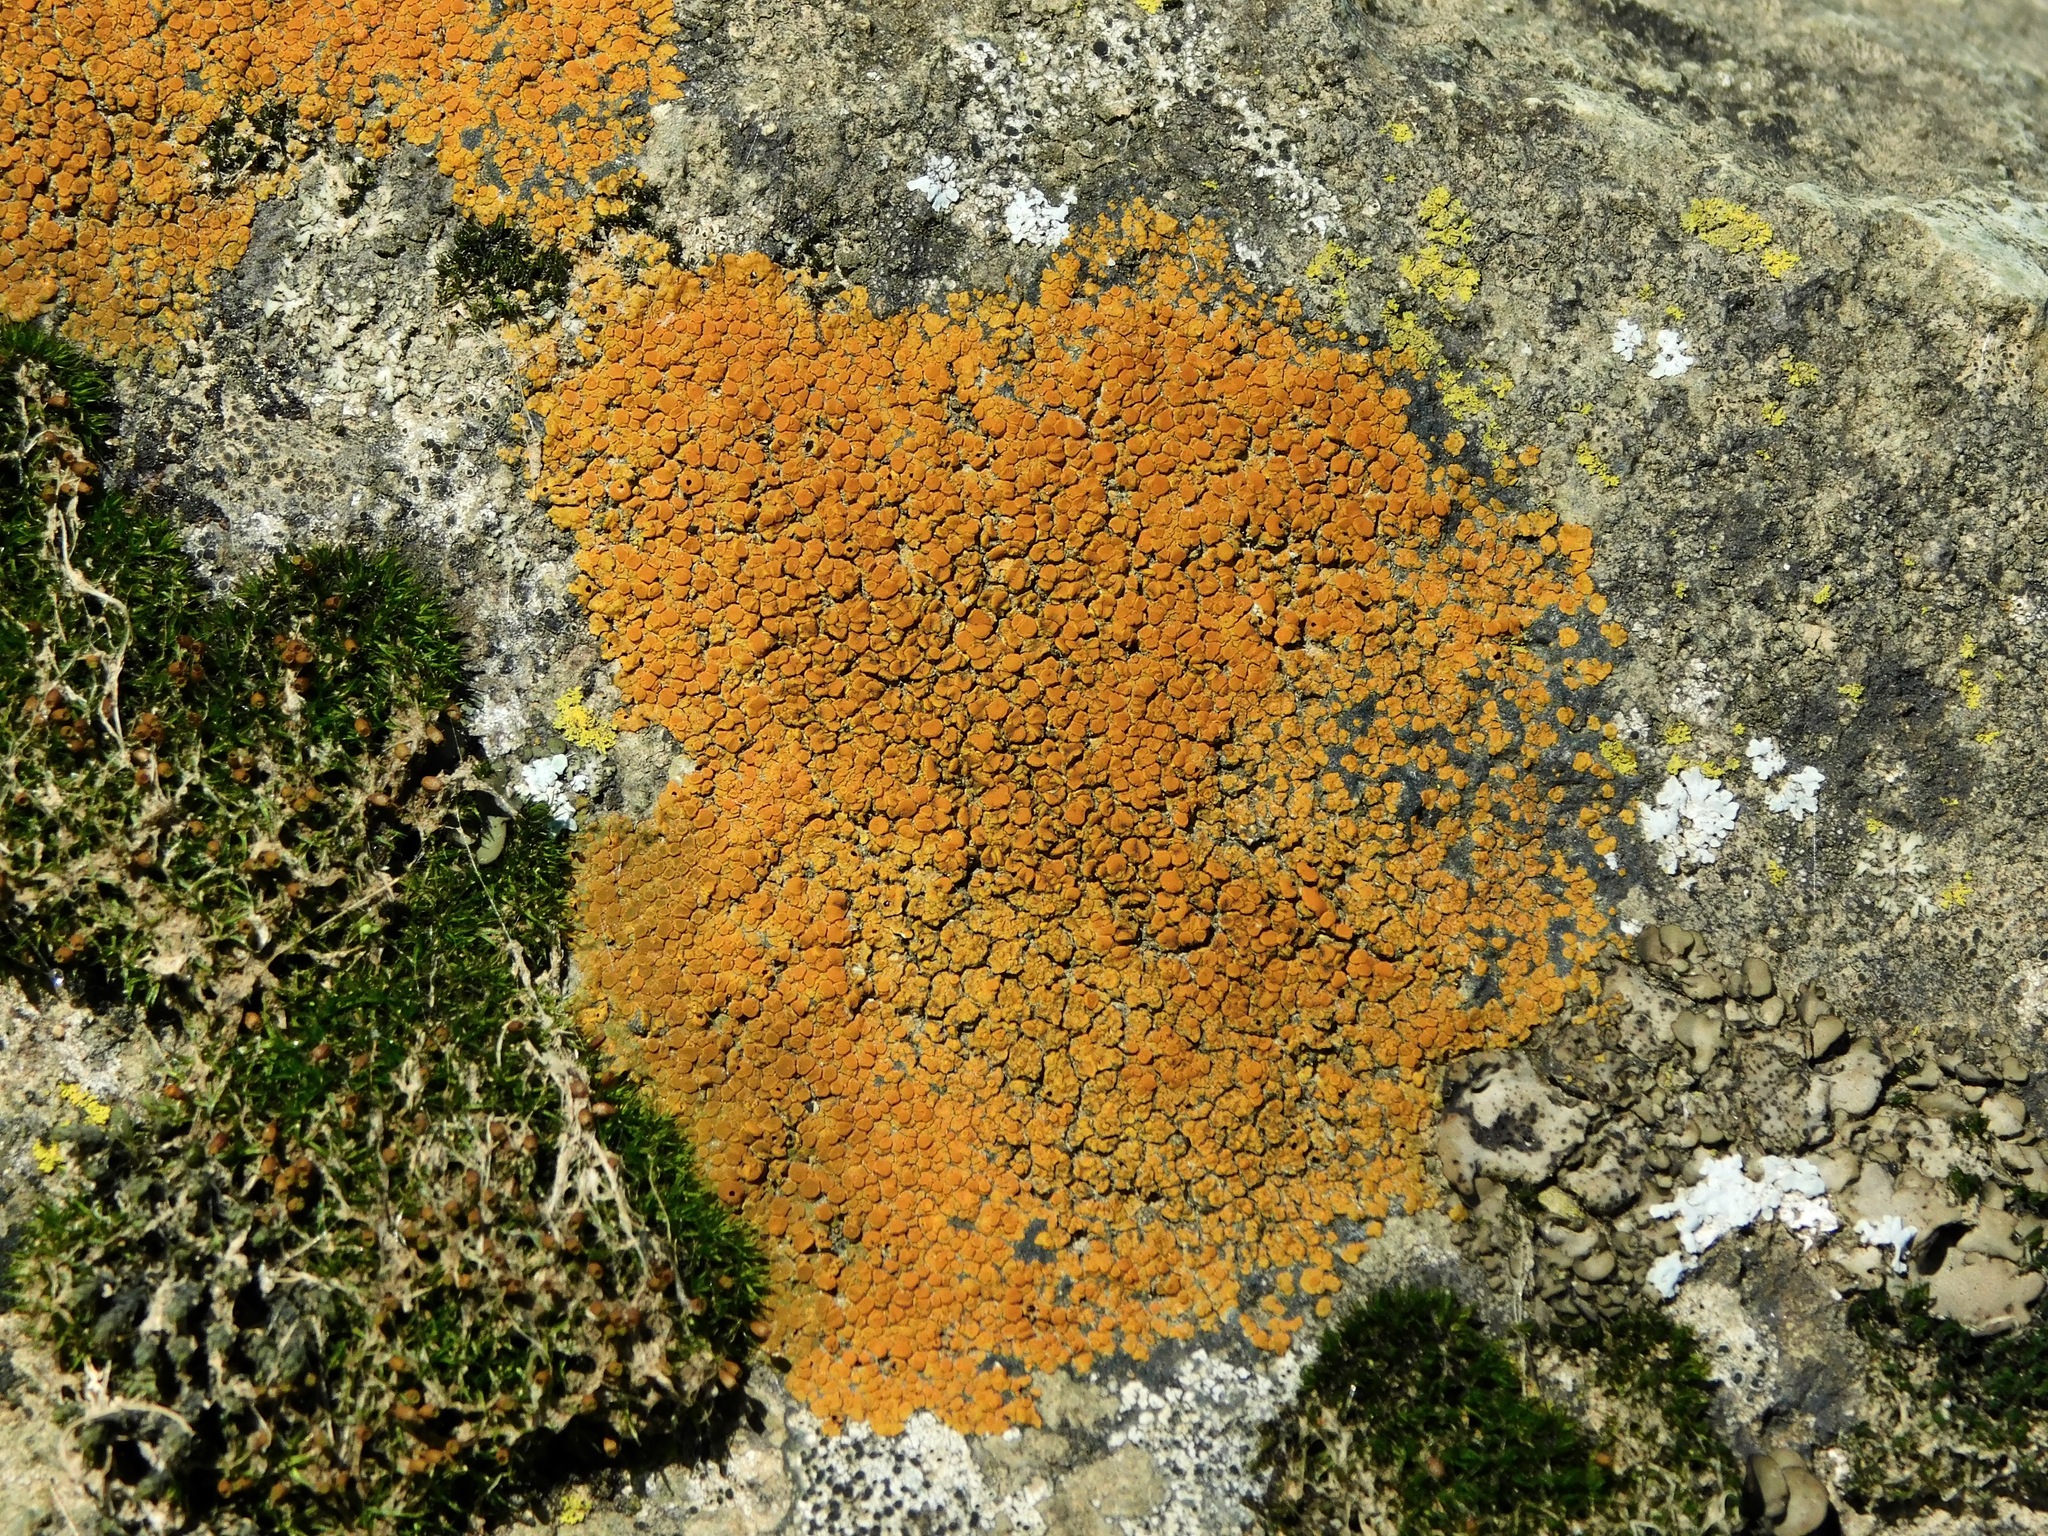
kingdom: Fungi
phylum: Ascomycota
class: Lecanoromycetes
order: Teloschistales
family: Teloschistaceae
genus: Squamulea
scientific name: Squamulea subsoluta
